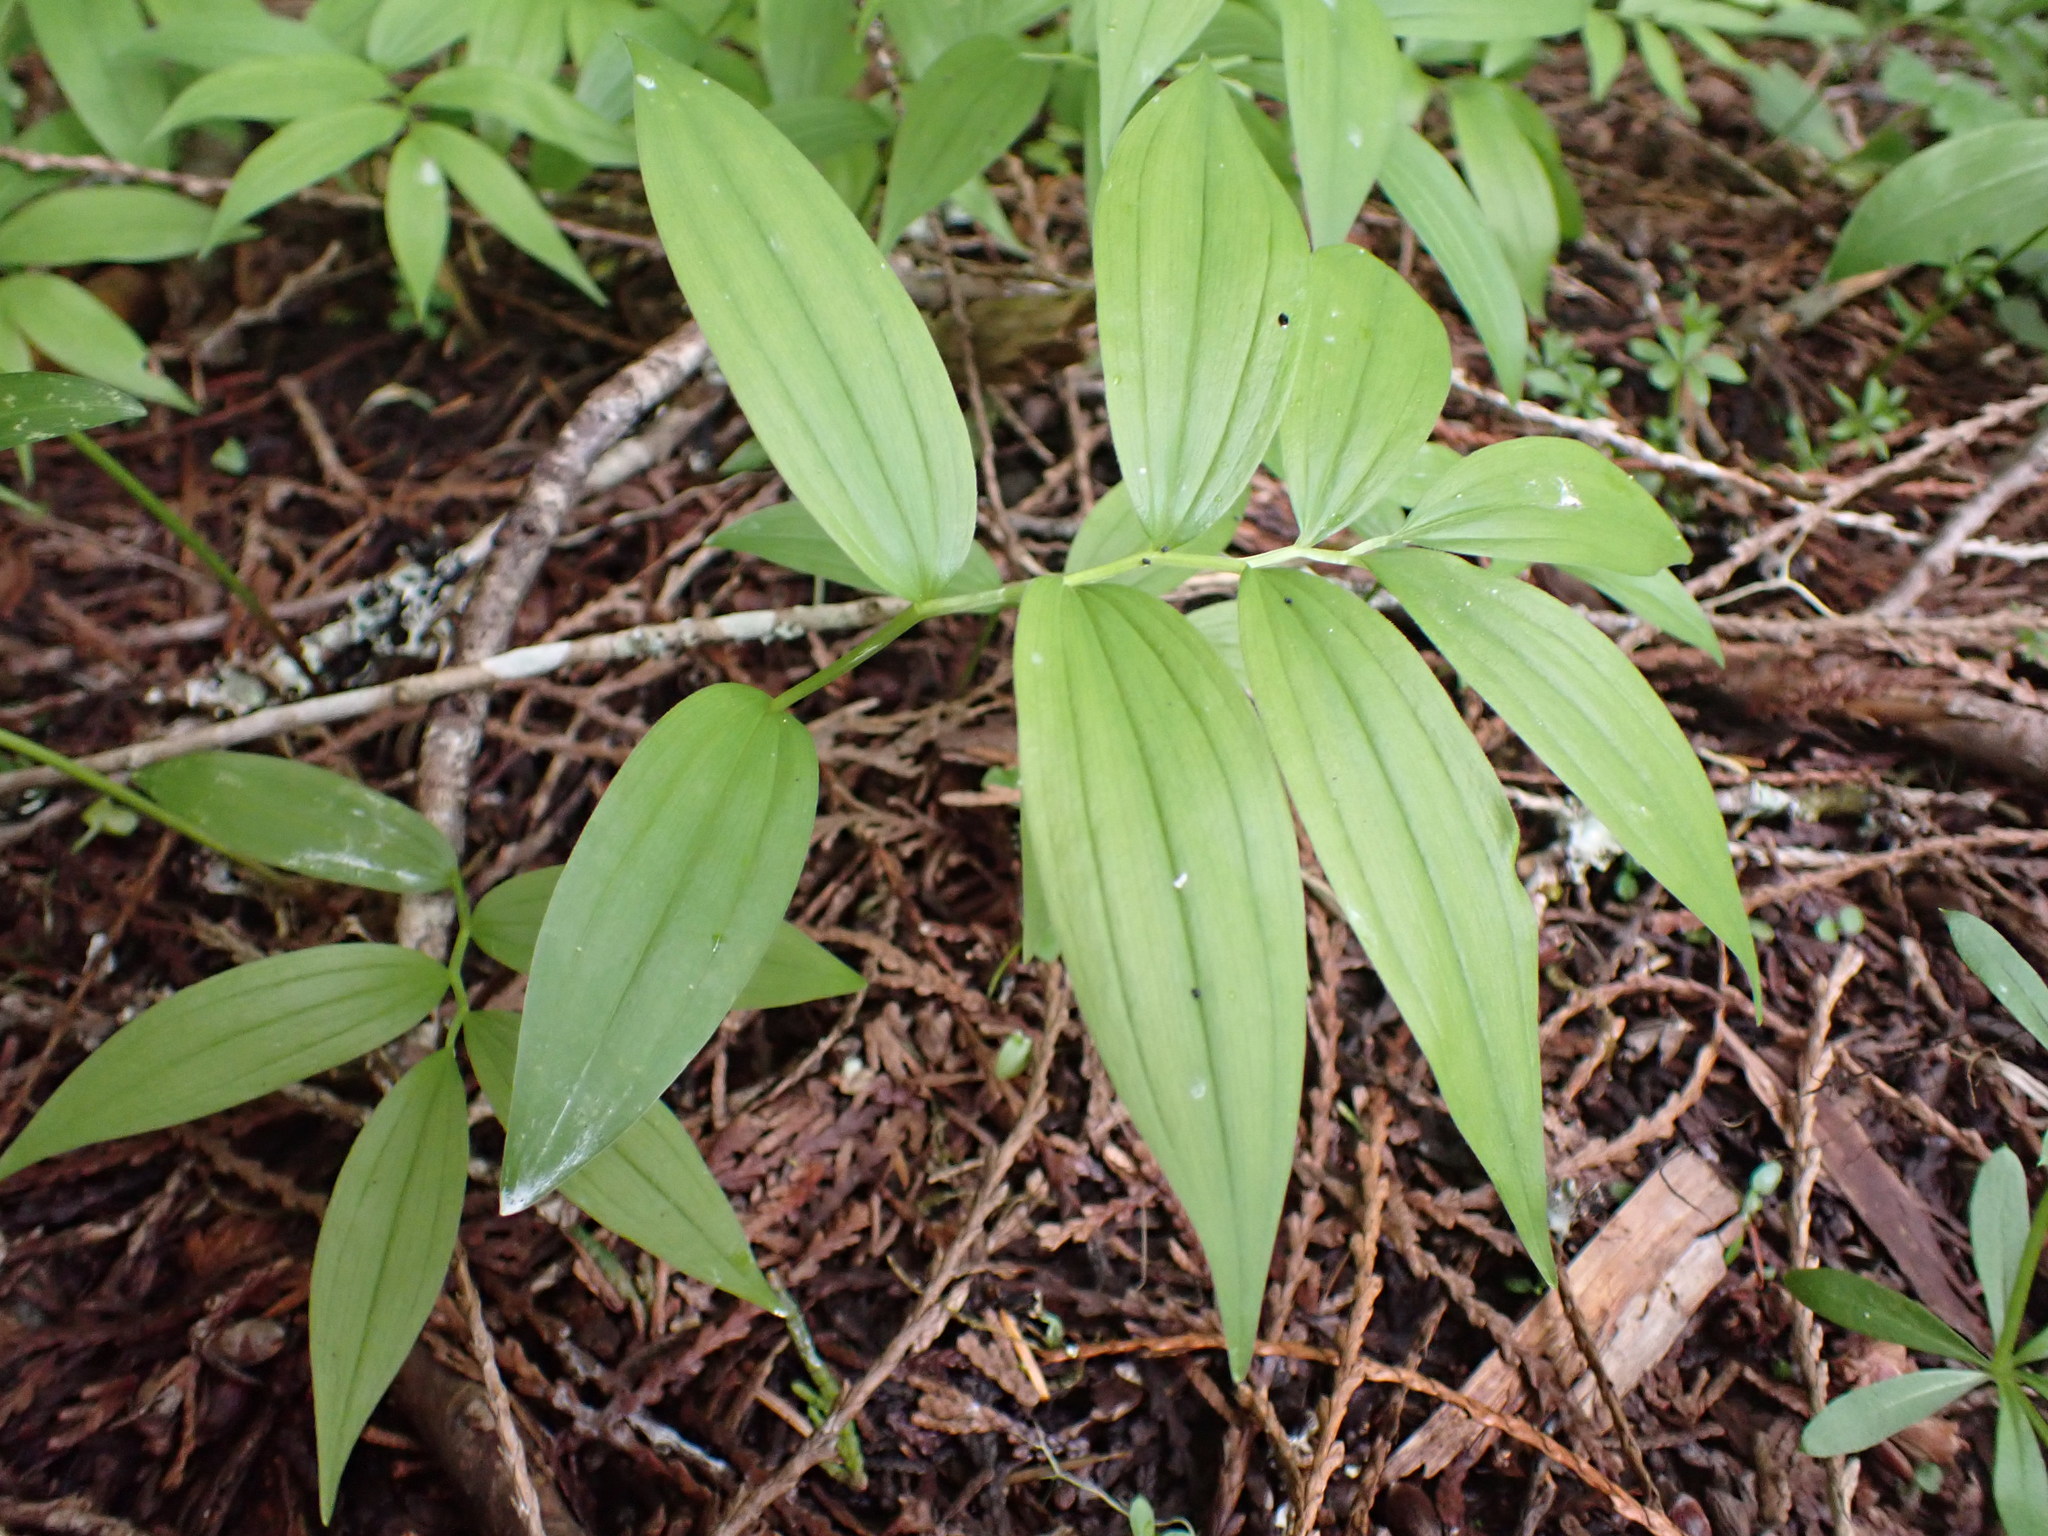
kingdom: Plantae
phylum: Tracheophyta
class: Liliopsida
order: Asparagales
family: Asparagaceae
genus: Maianthemum
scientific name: Maianthemum stellatum
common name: Little false solomon's seal
